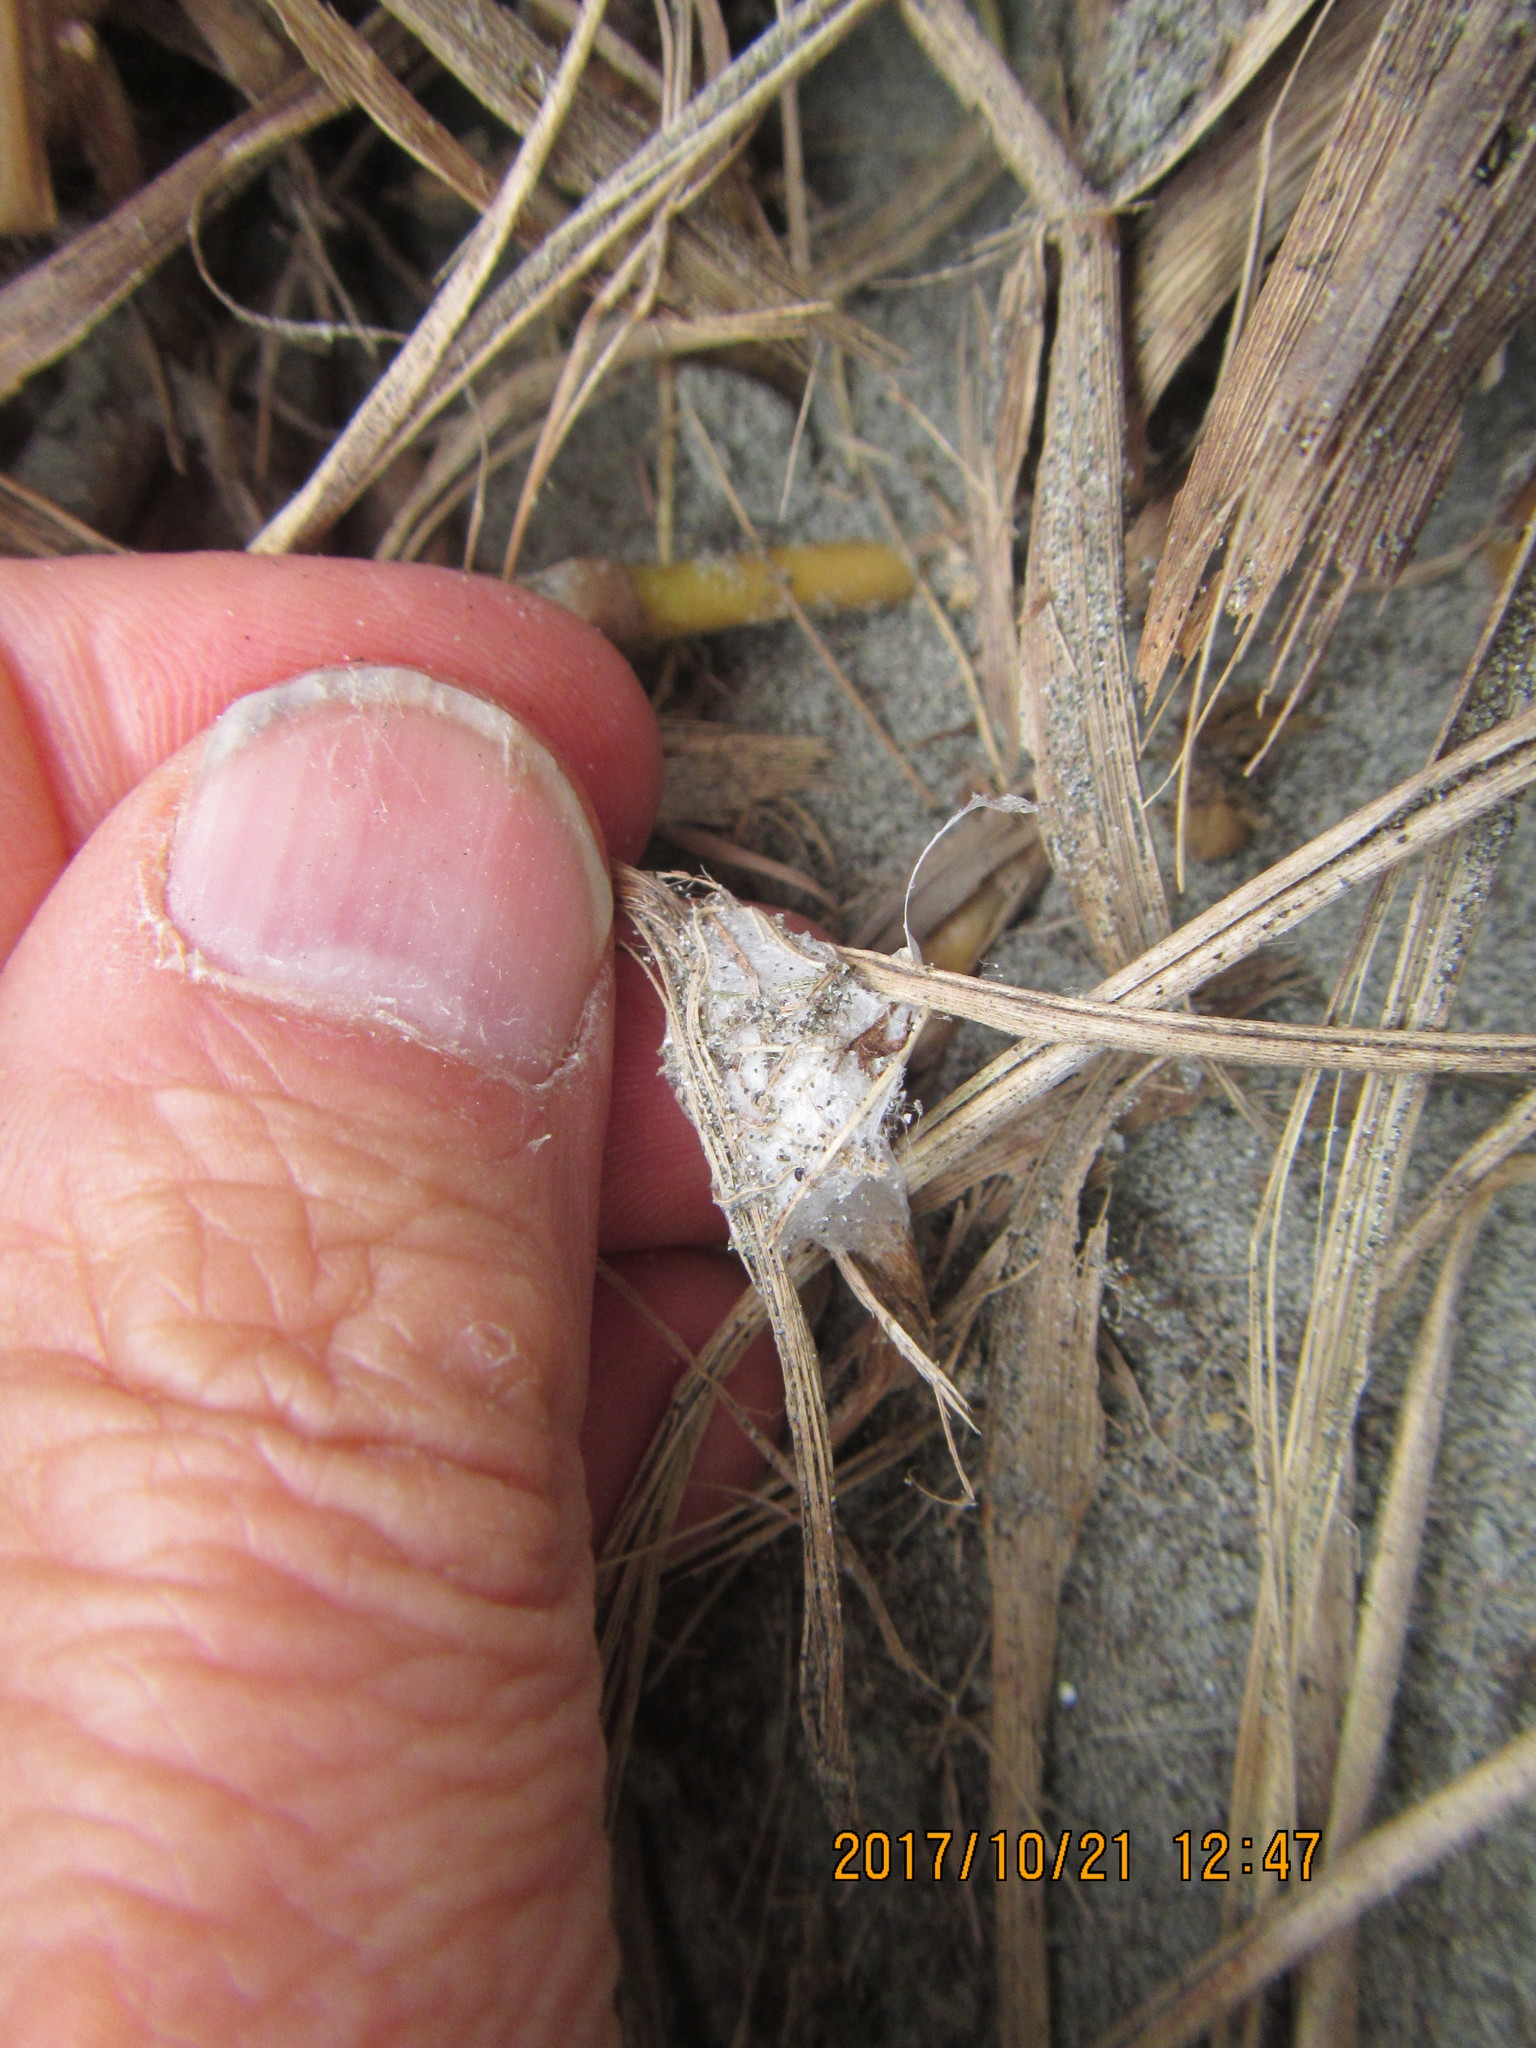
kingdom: Animalia
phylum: Arthropoda
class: Arachnida
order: Araneae
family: Thomisidae
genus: Sidymella
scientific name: Sidymella trapezia
